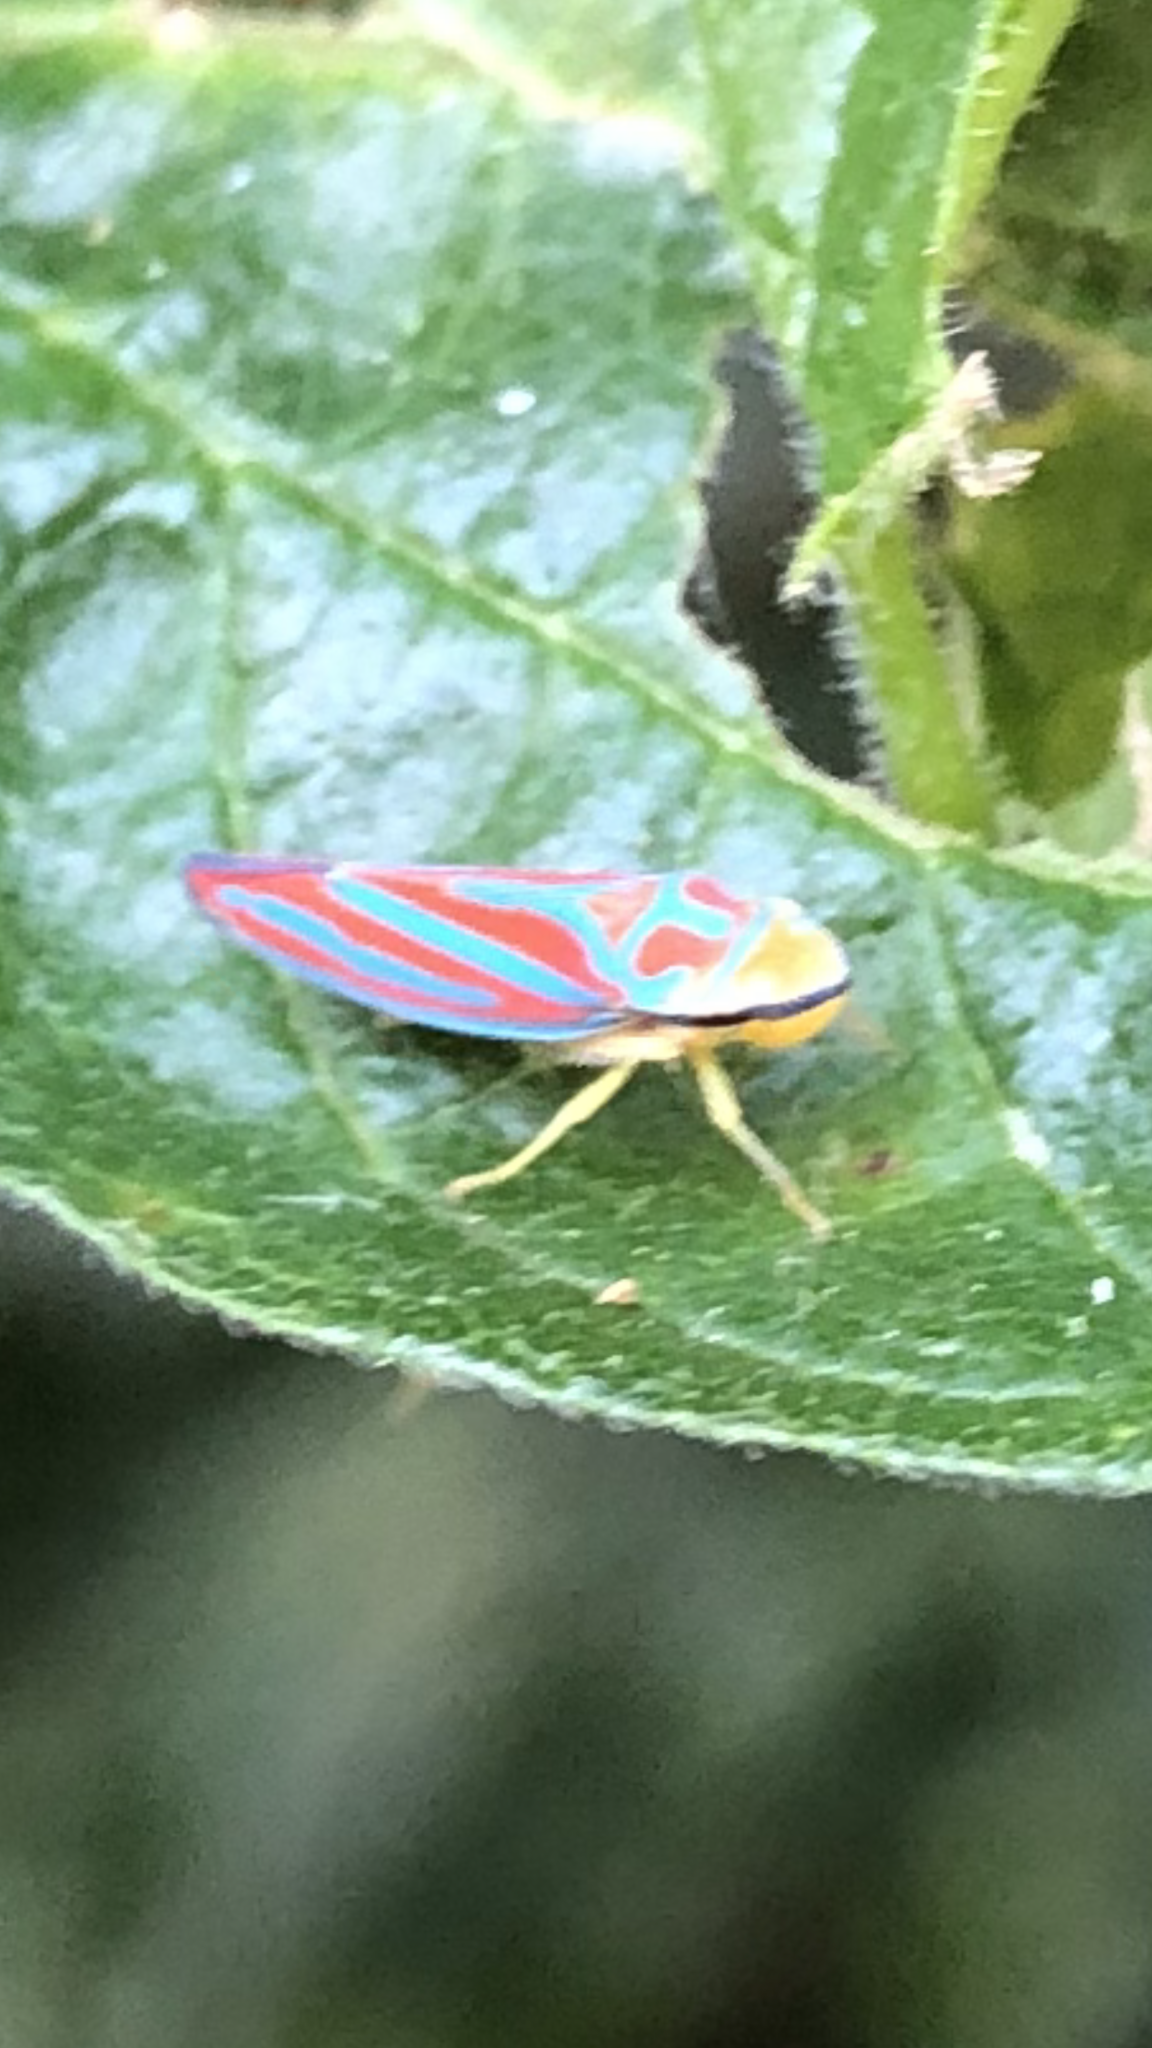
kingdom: Animalia
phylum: Arthropoda
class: Insecta
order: Hemiptera
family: Cicadellidae
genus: Graphocephala
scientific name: Graphocephala coccinea
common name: Candy-striped leafhopper
